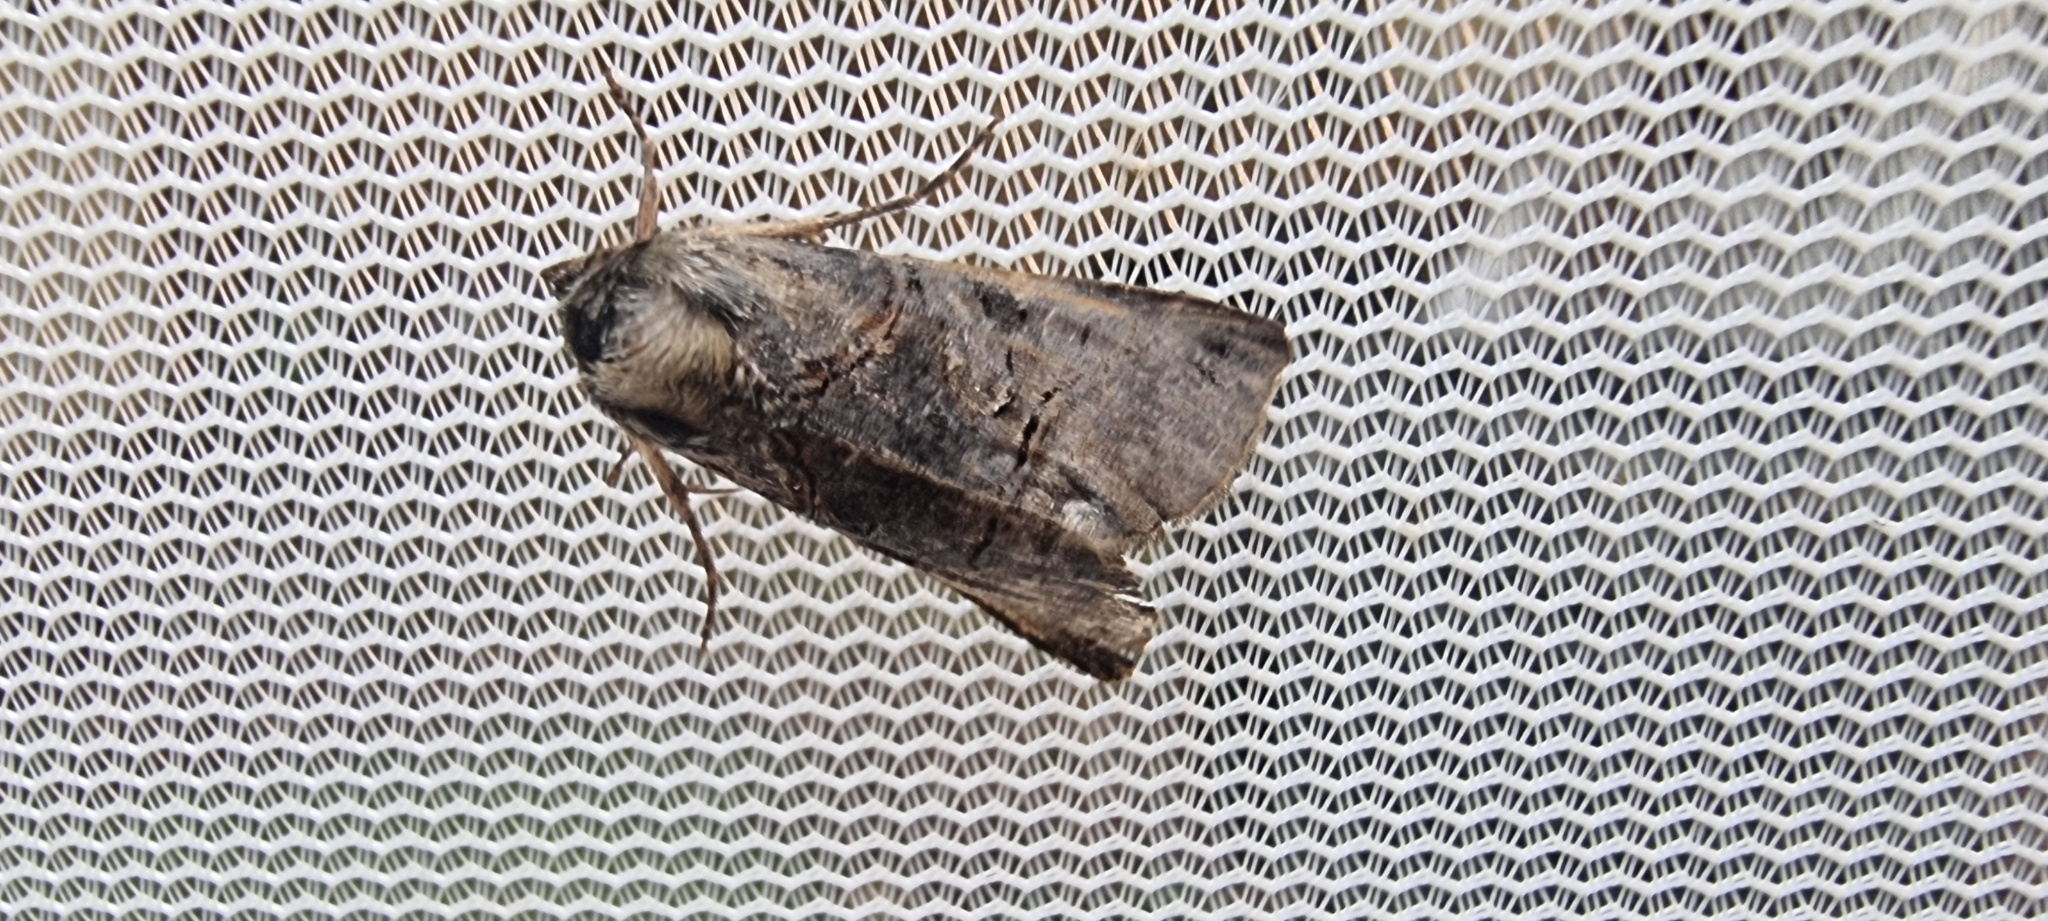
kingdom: Animalia
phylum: Arthropoda
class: Insecta
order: Lepidoptera
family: Noctuidae
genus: Abrostola
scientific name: Abrostola tripartita
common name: Spectacle
